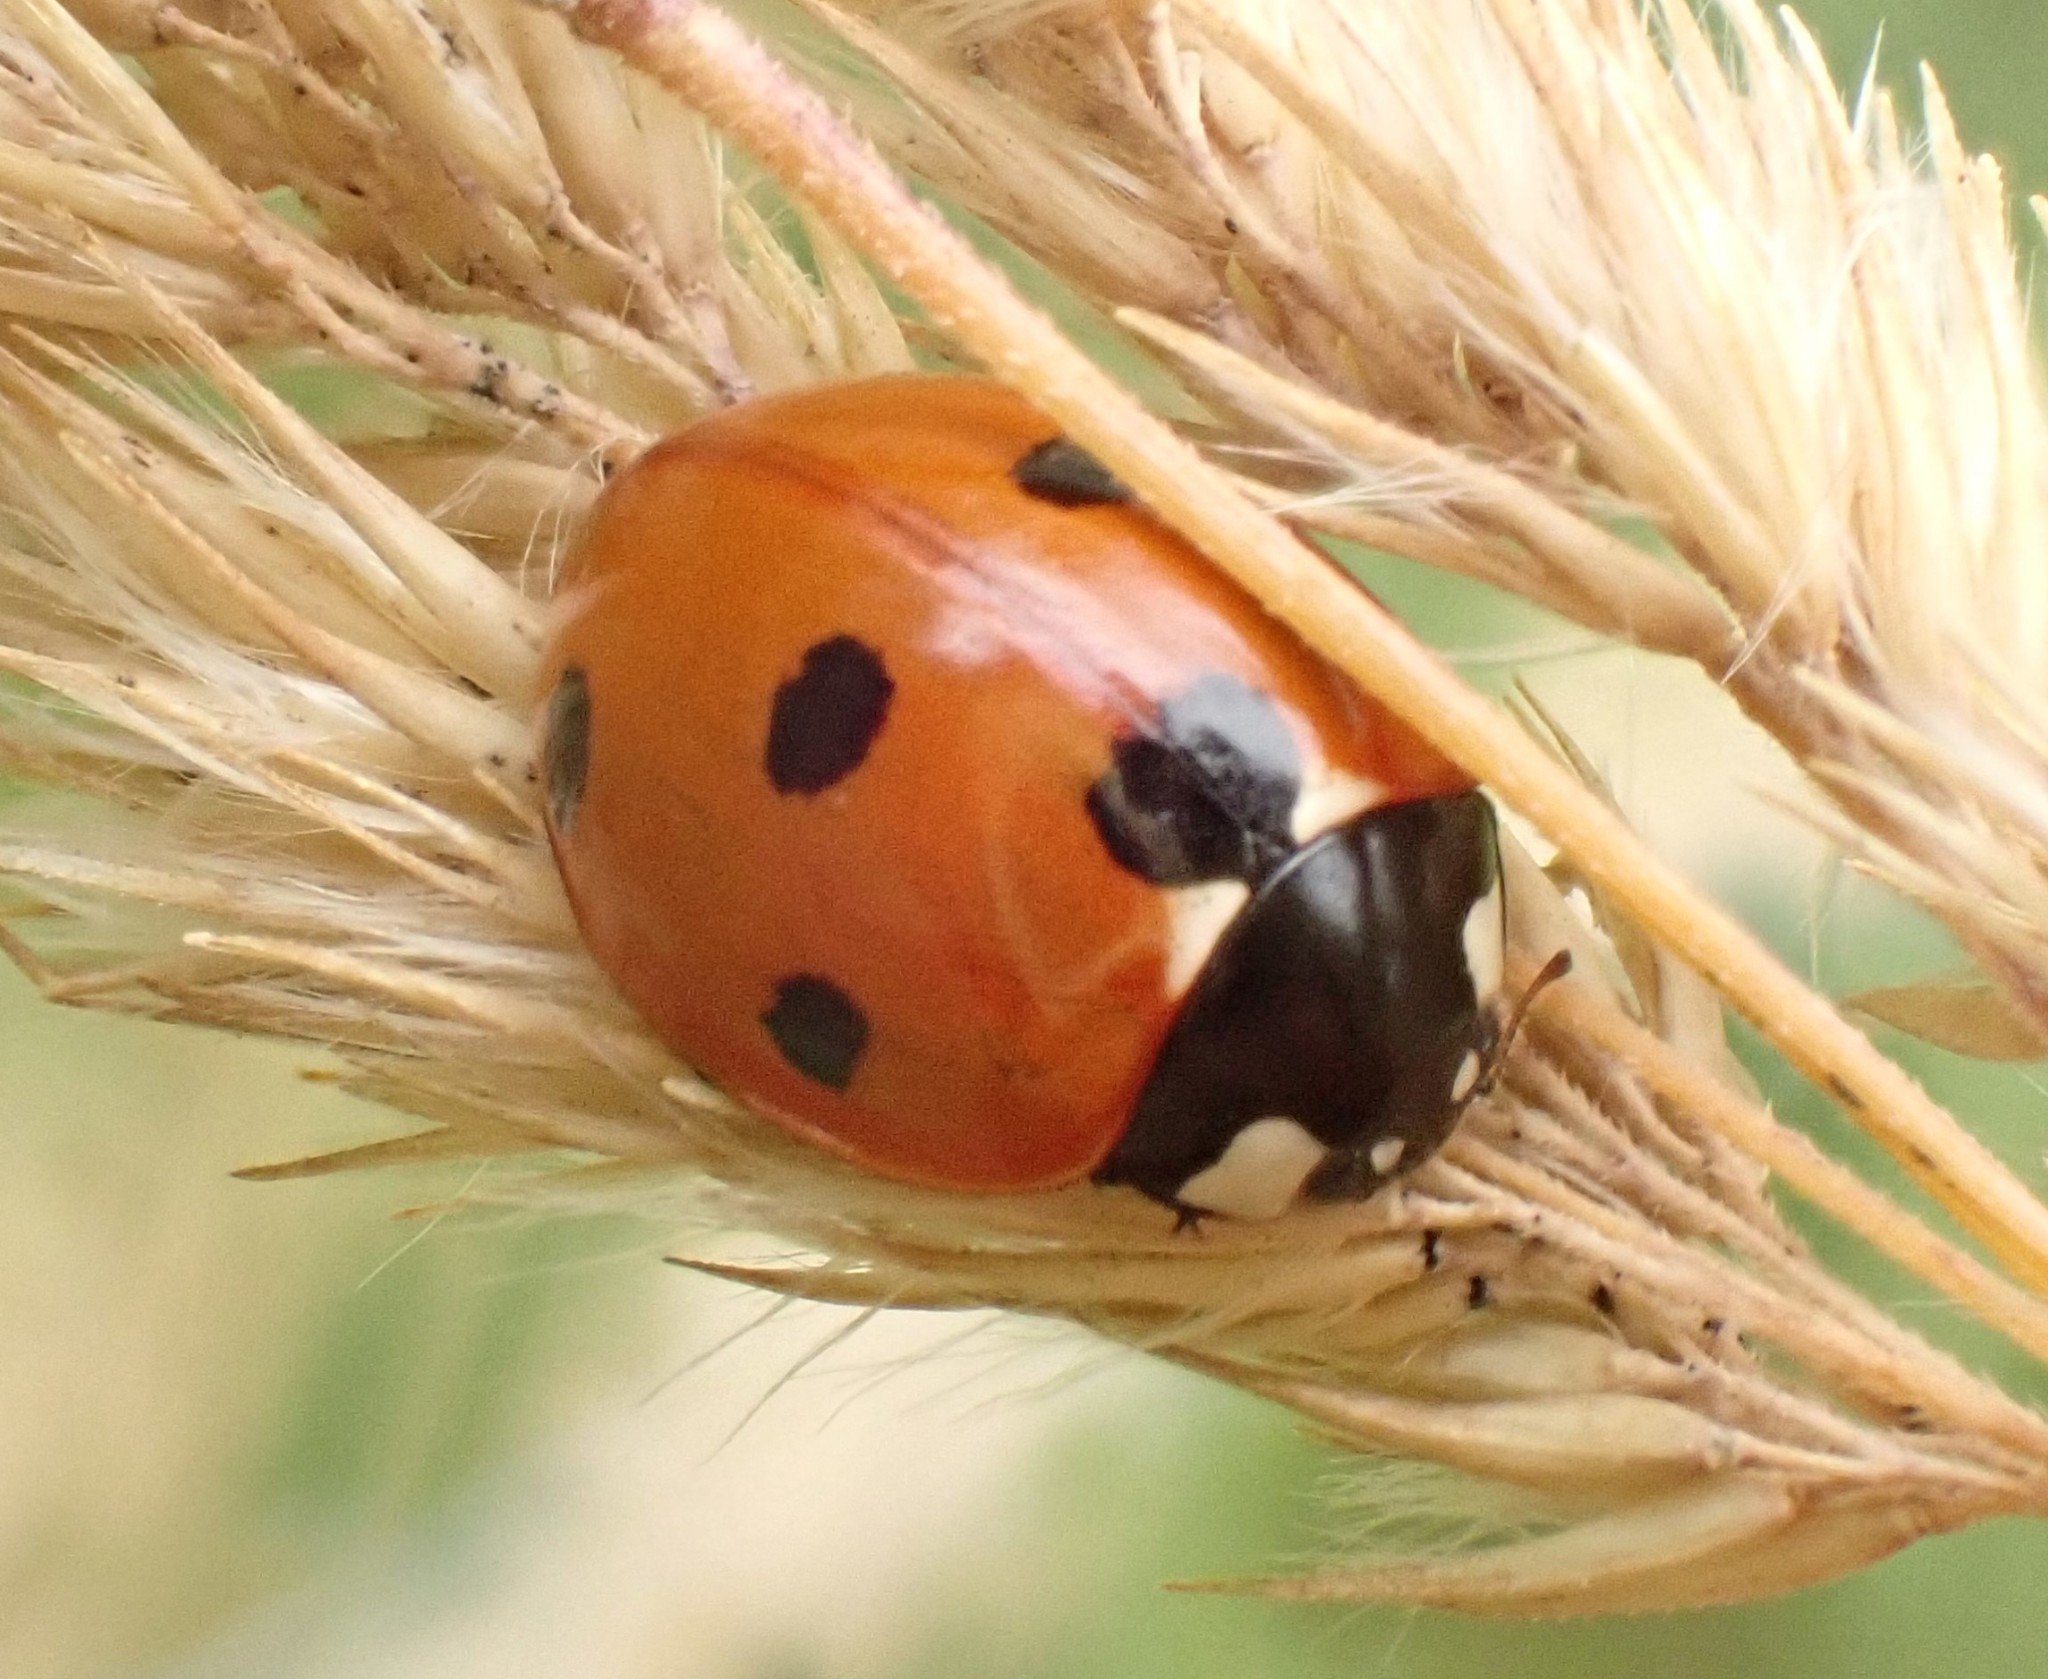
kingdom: Animalia
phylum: Arthropoda
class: Insecta
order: Coleoptera
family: Coccinellidae
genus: Coccinella
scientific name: Coccinella septempunctata
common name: Sevenspotted lady beetle
